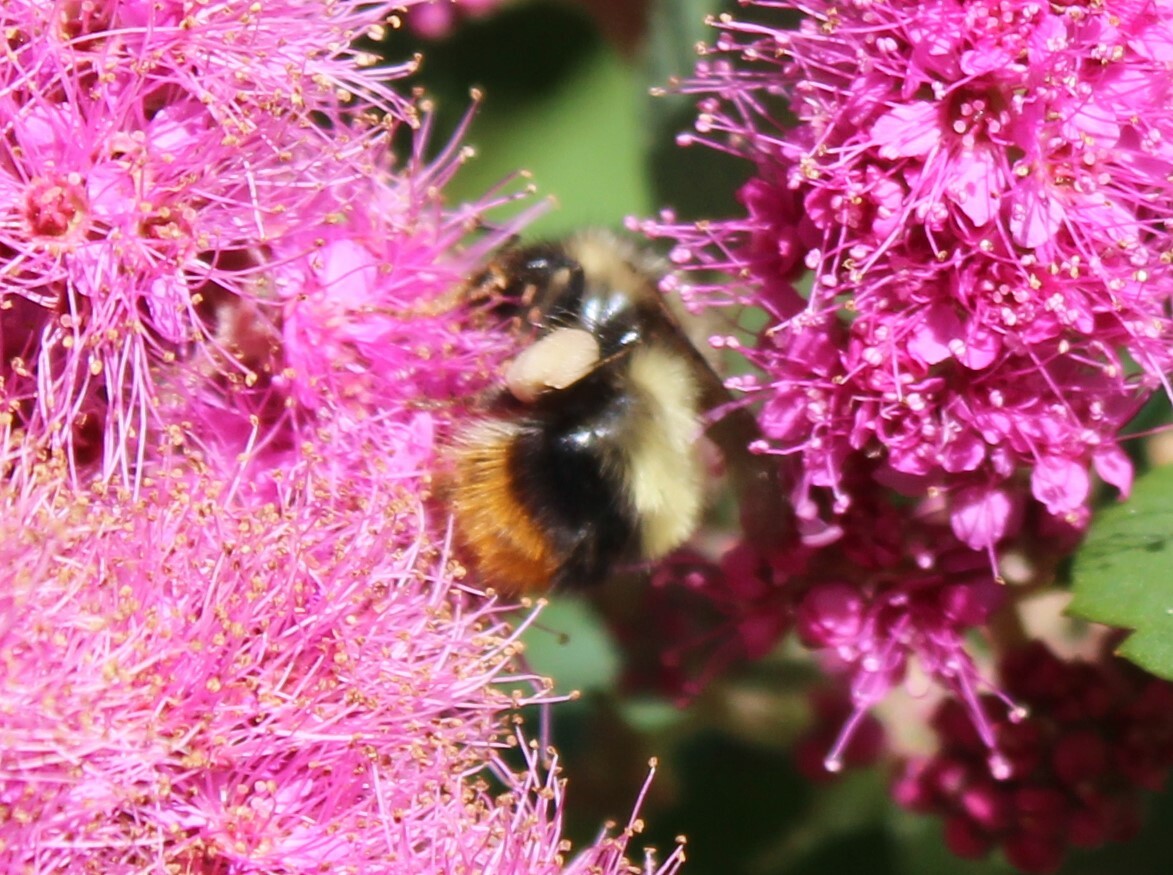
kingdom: Animalia
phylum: Arthropoda
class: Insecta
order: Hymenoptera
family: Apidae
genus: Bombus
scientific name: Bombus mixtus
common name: Fuzzy-horned bumble bee
